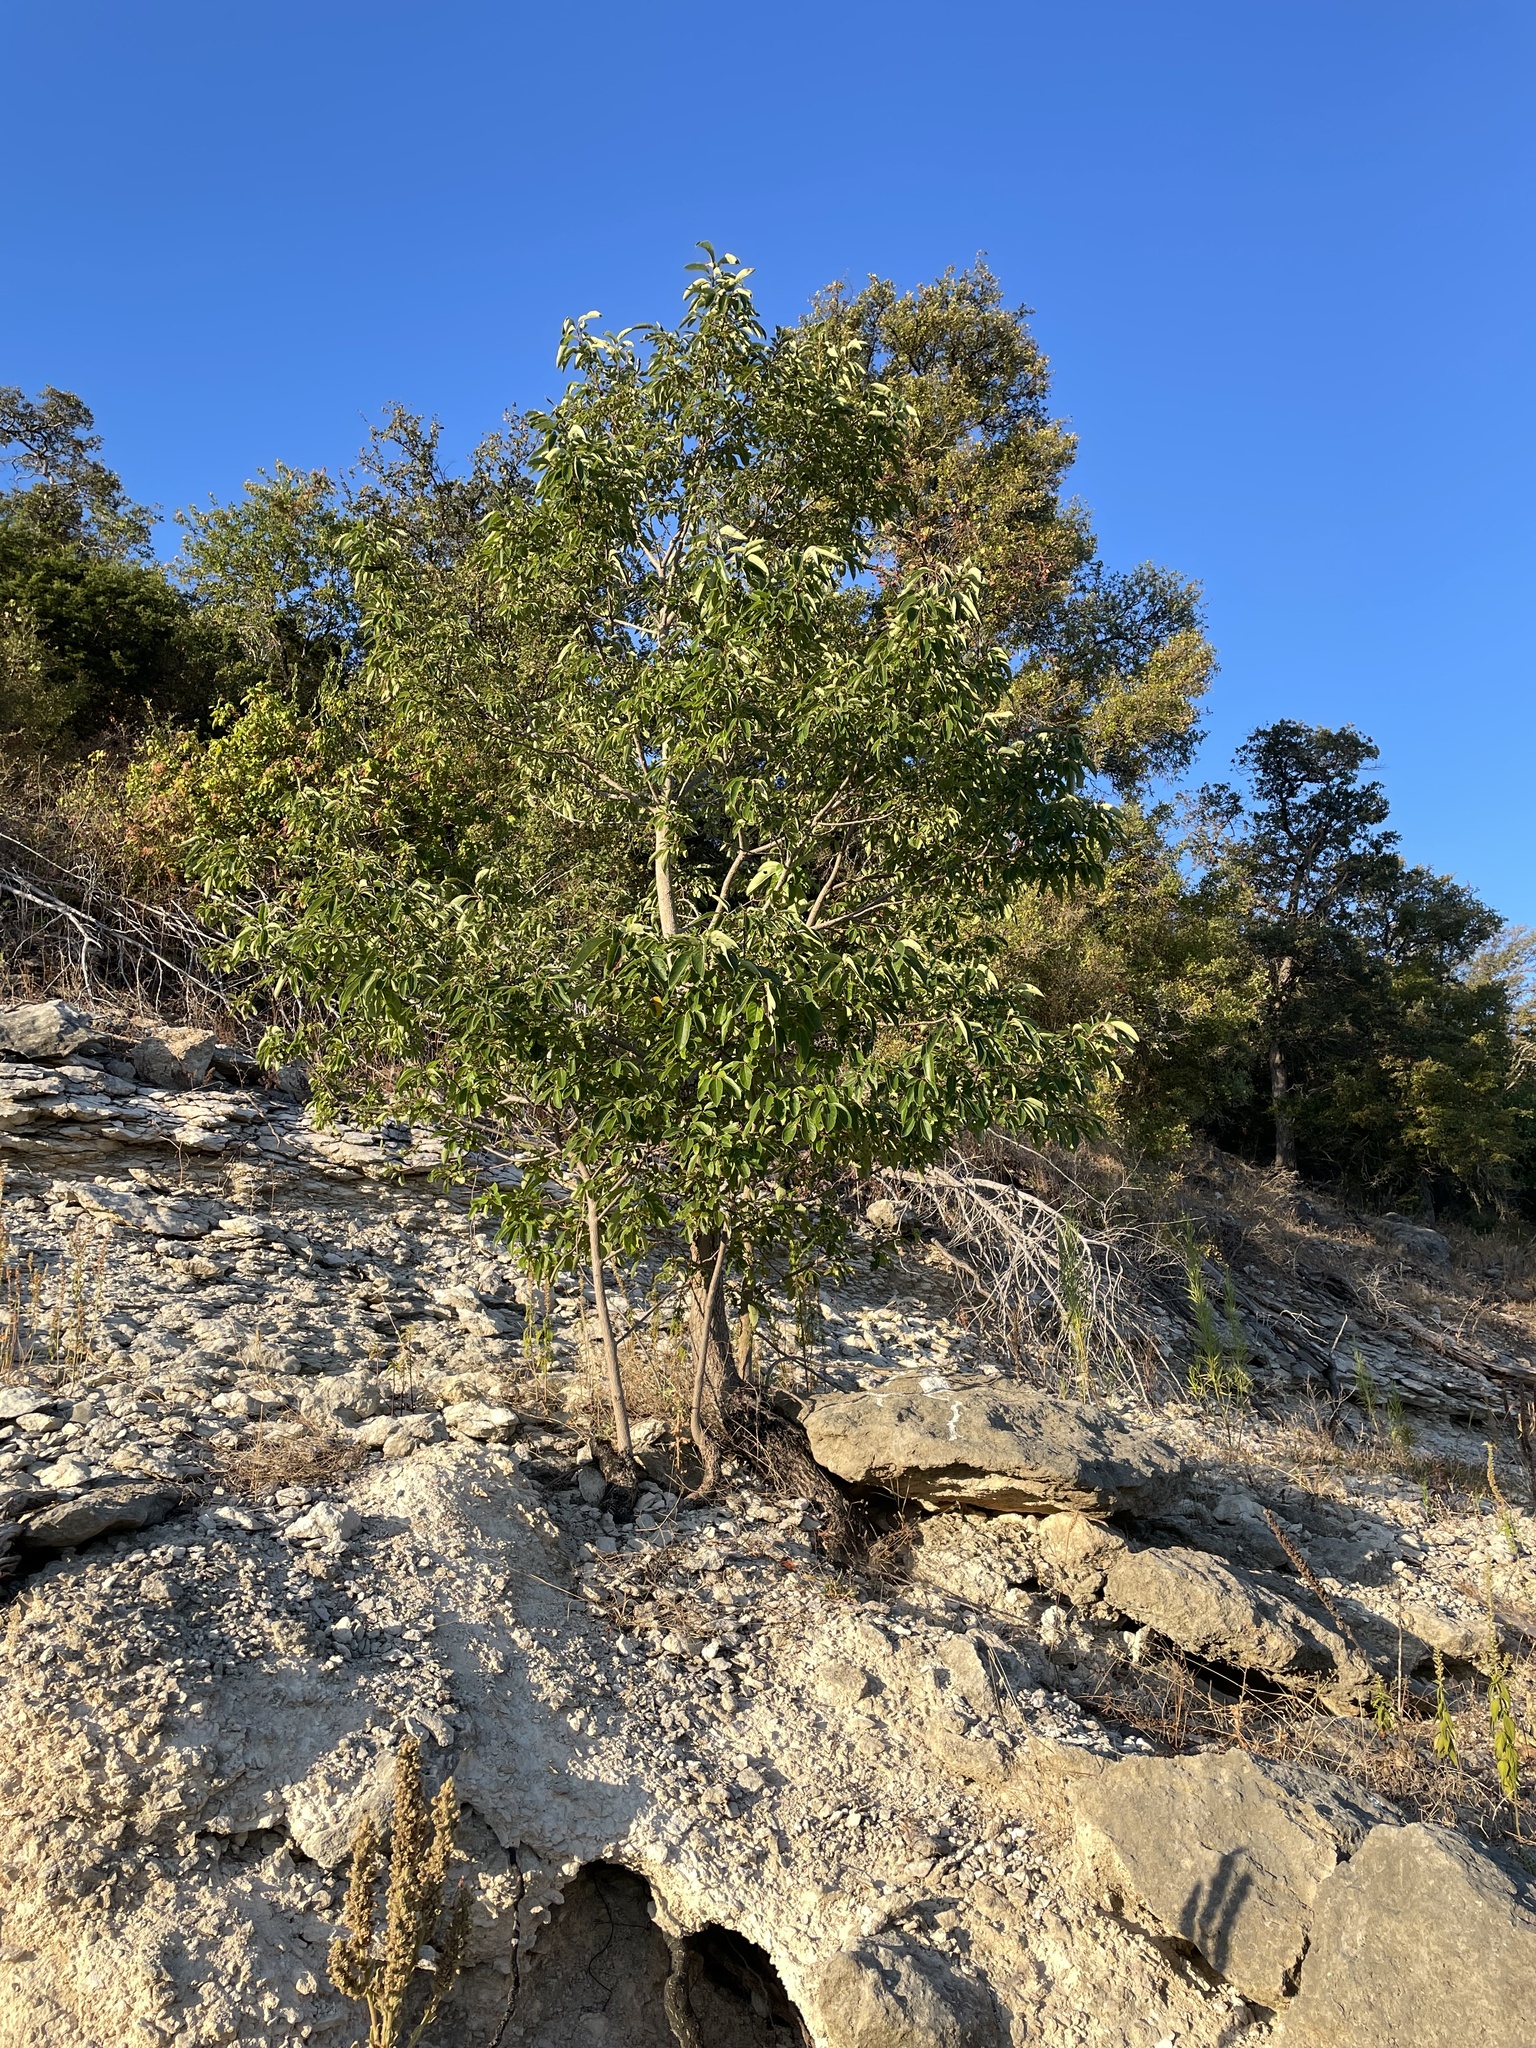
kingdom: Plantae
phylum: Tracheophyta
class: Magnoliopsida
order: Ericales
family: Ebenaceae
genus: Diospyros
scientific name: Diospyros virginiana
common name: Persimmon
